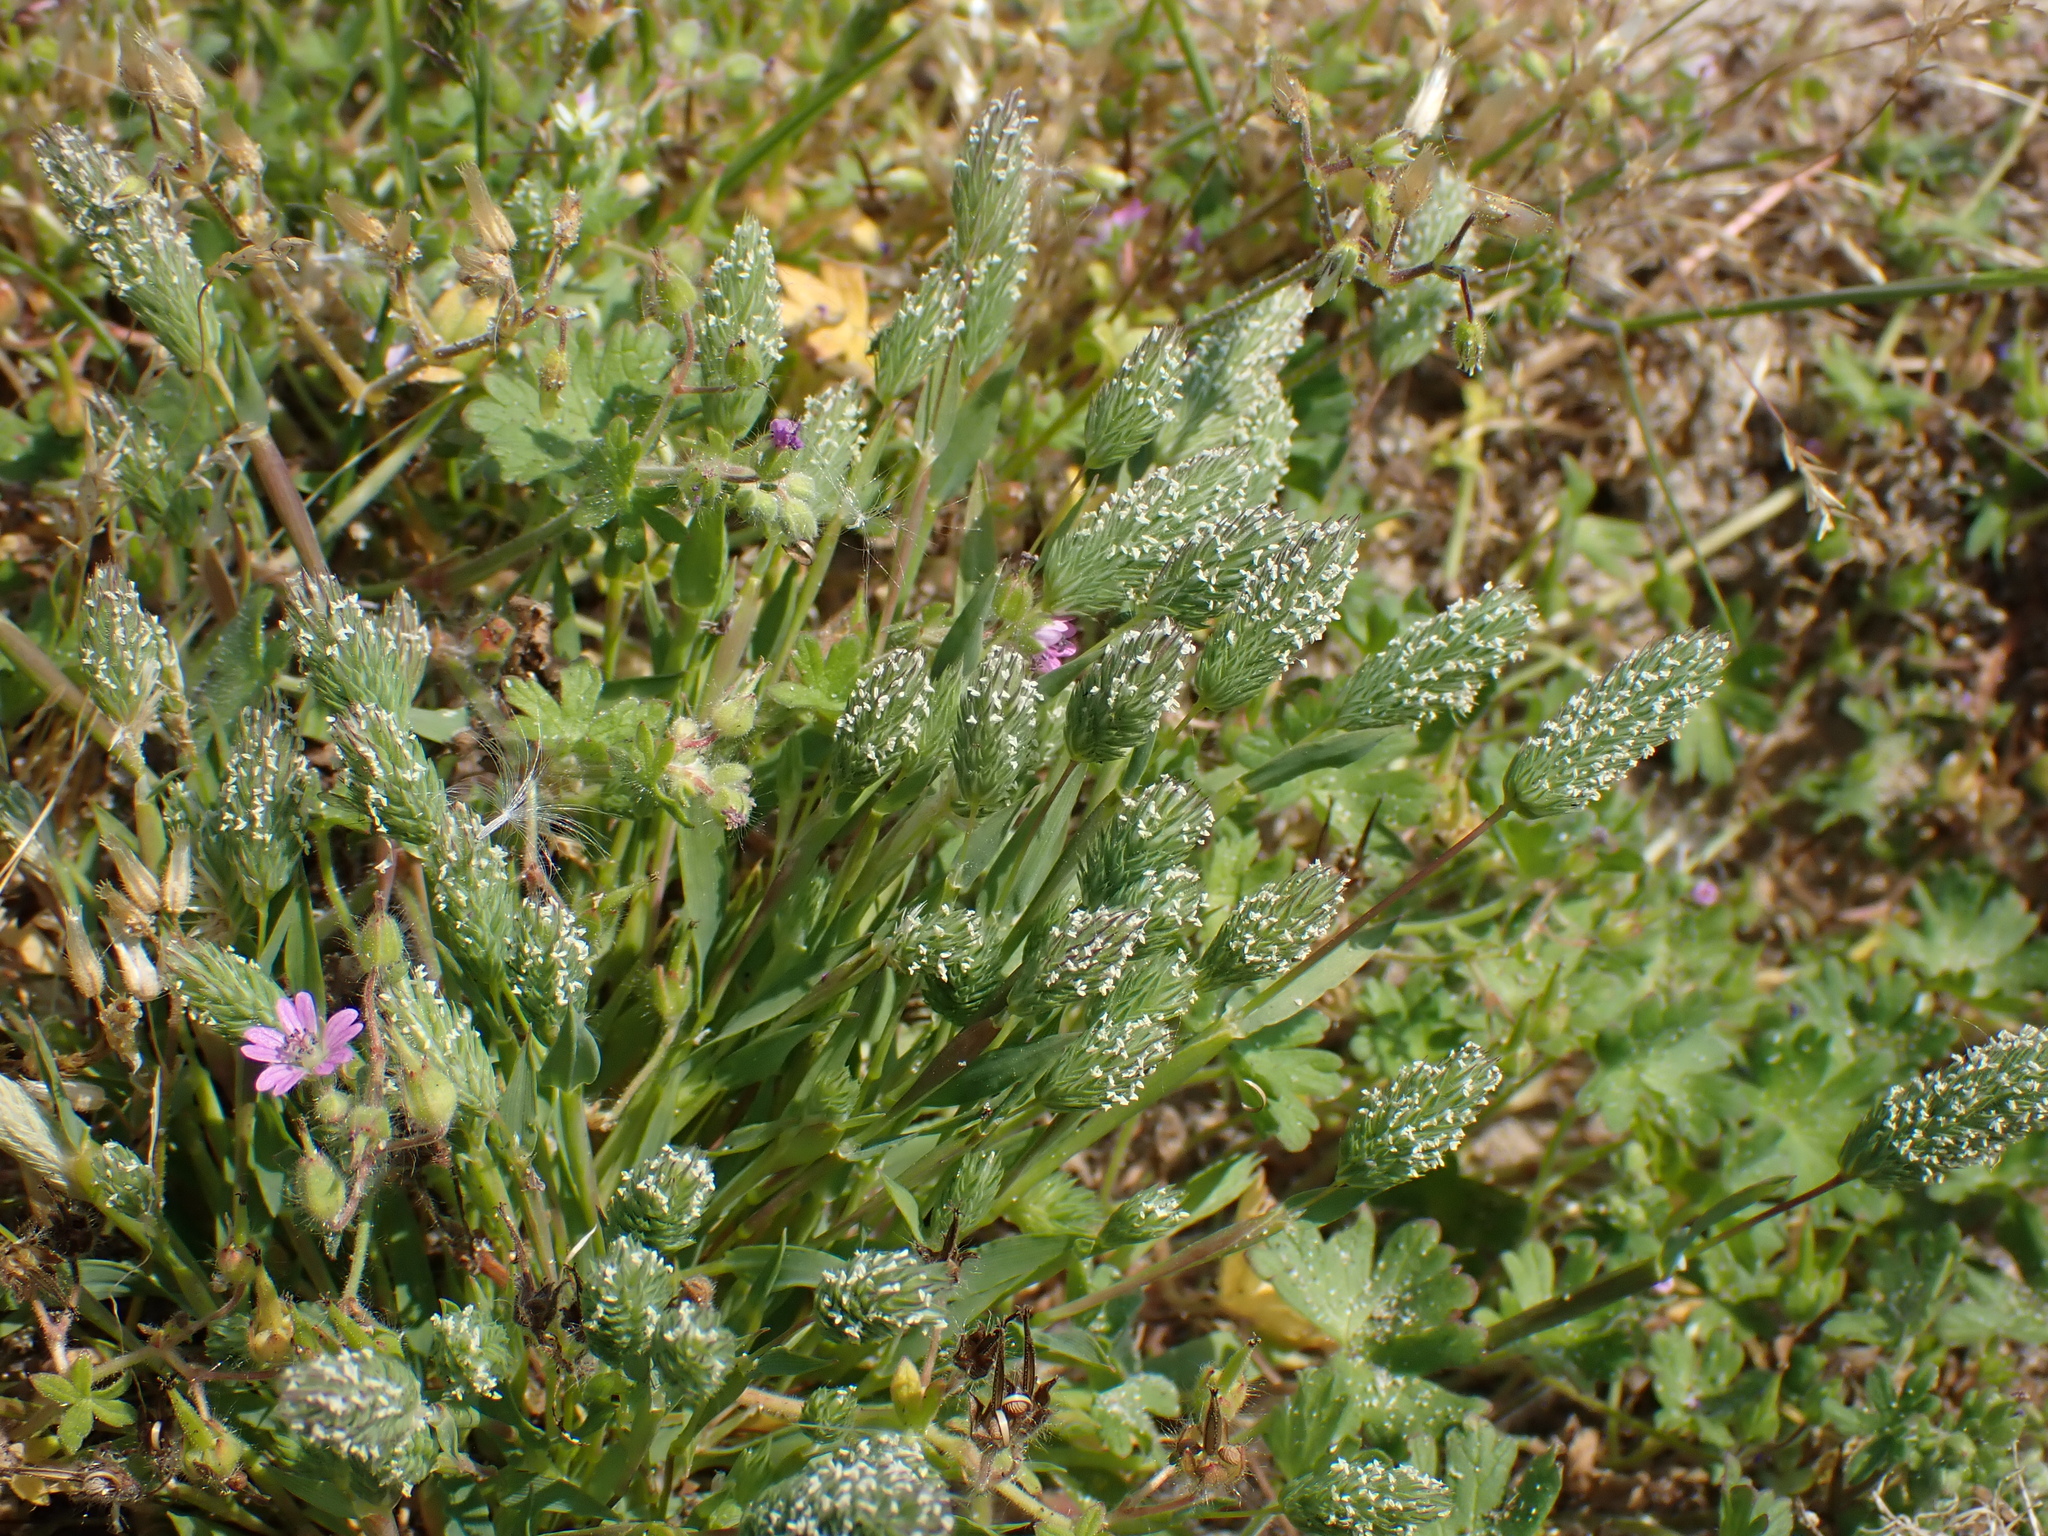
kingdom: Plantae
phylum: Tracheophyta
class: Liliopsida
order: Poales
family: Poaceae
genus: Phleum
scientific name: Phleum arenarium
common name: Sand cat's-tail
